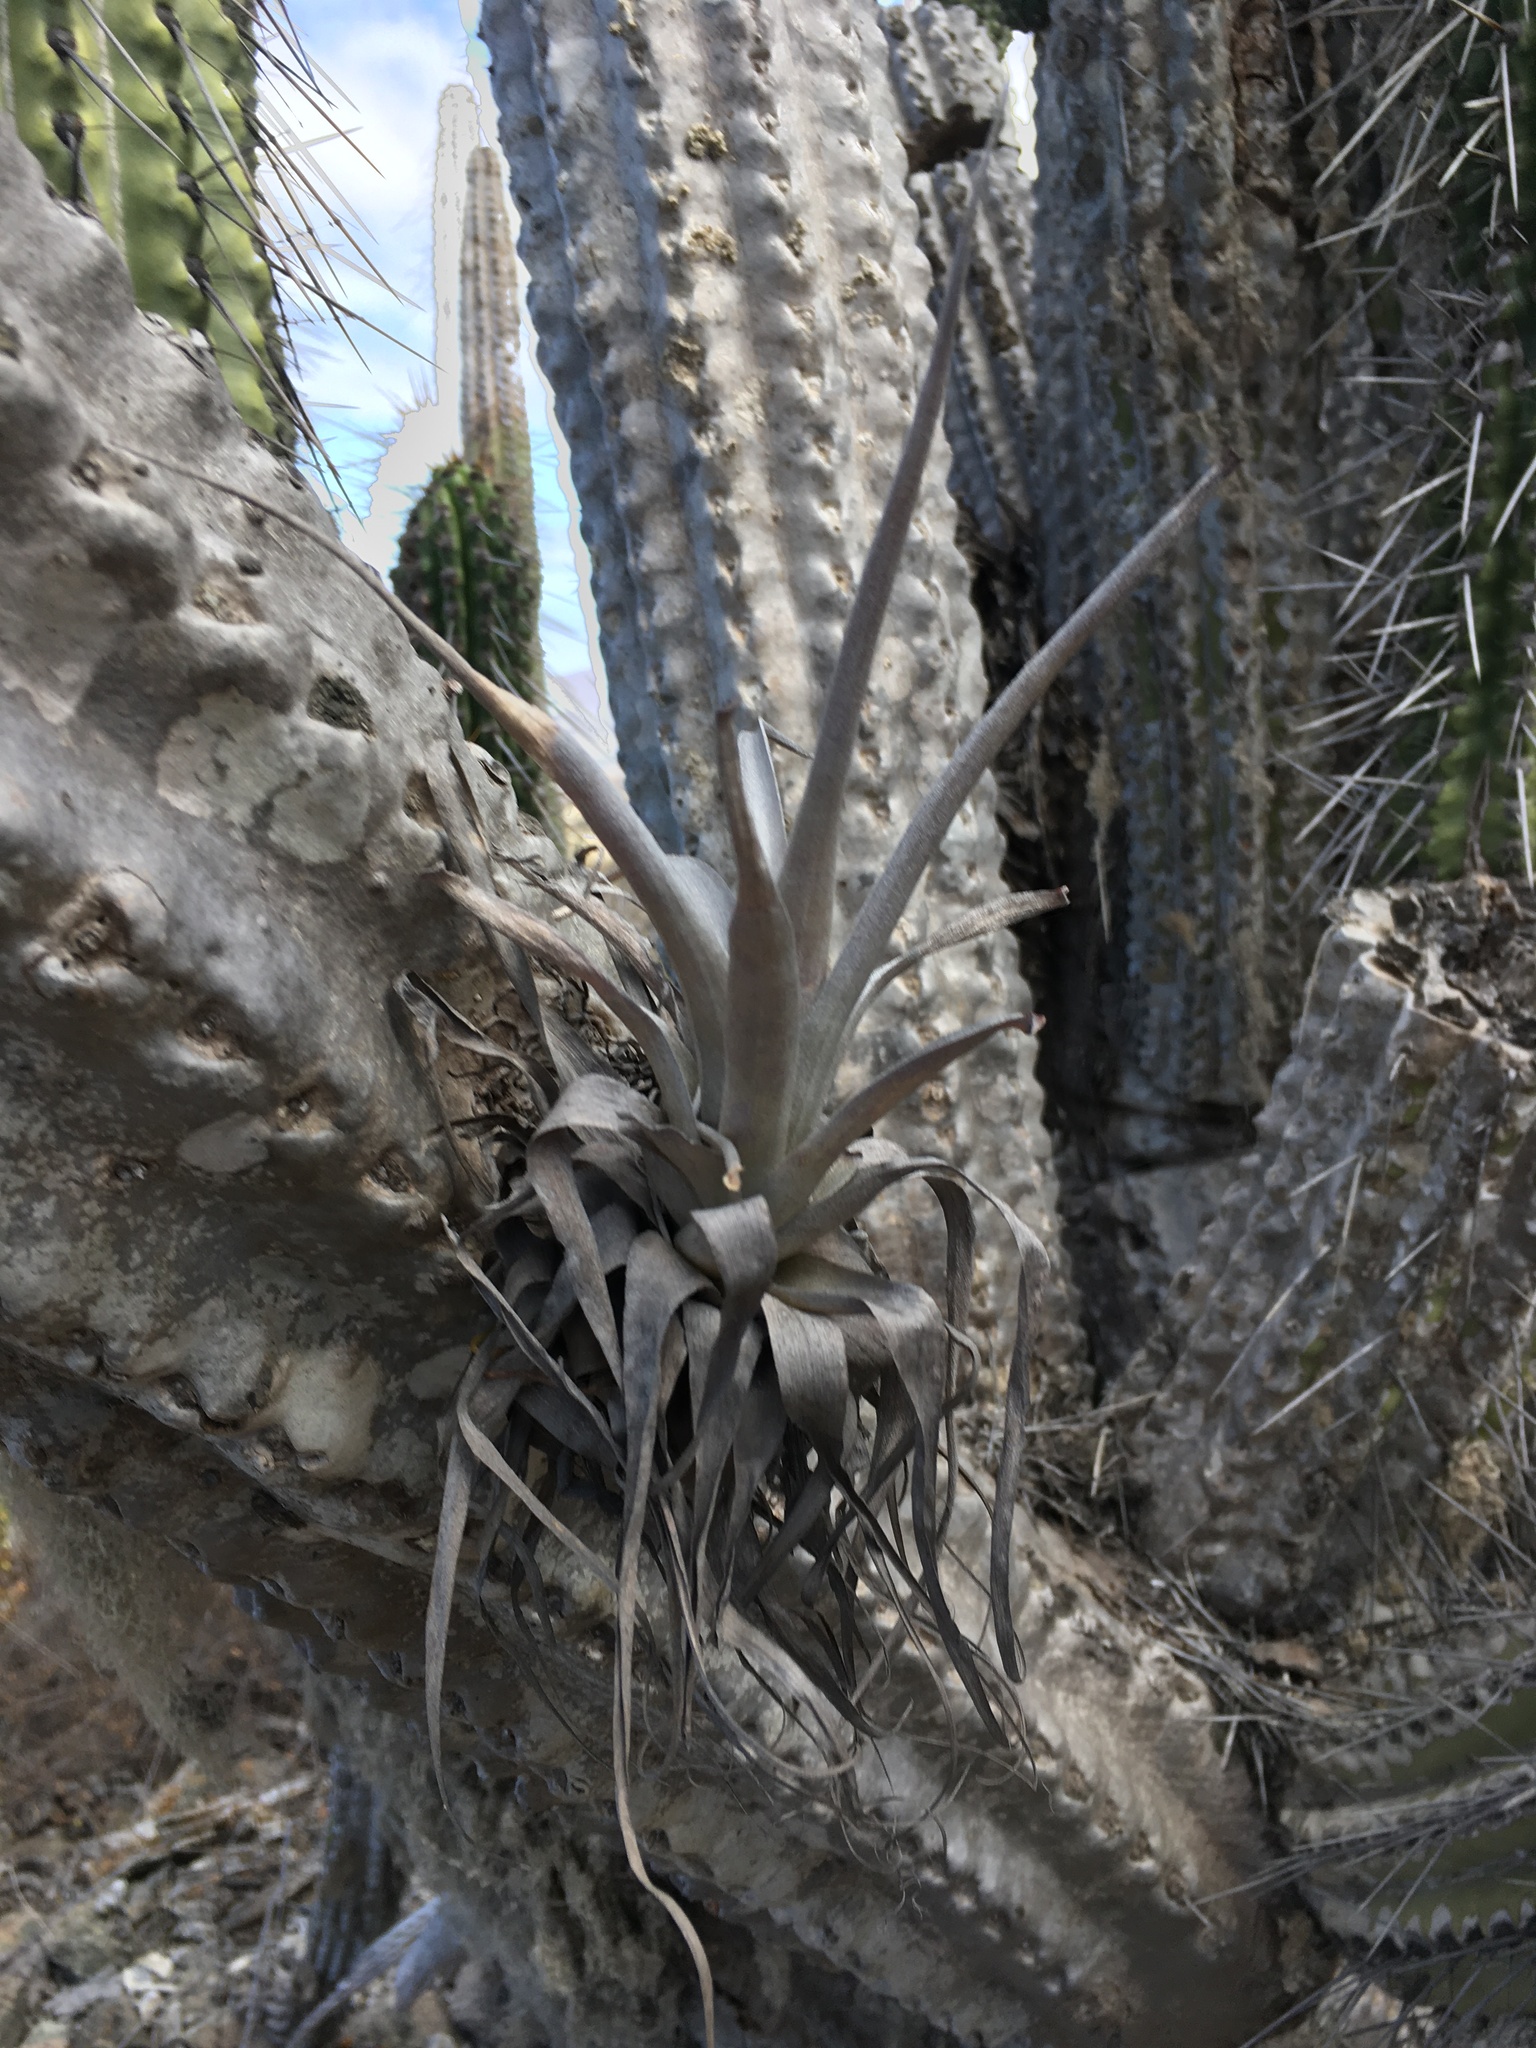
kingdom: Plantae
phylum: Tracheophyta
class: Liliopsida
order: Poales
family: Bromeliaceae
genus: Tillandsia
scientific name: Tillandsia geissei
